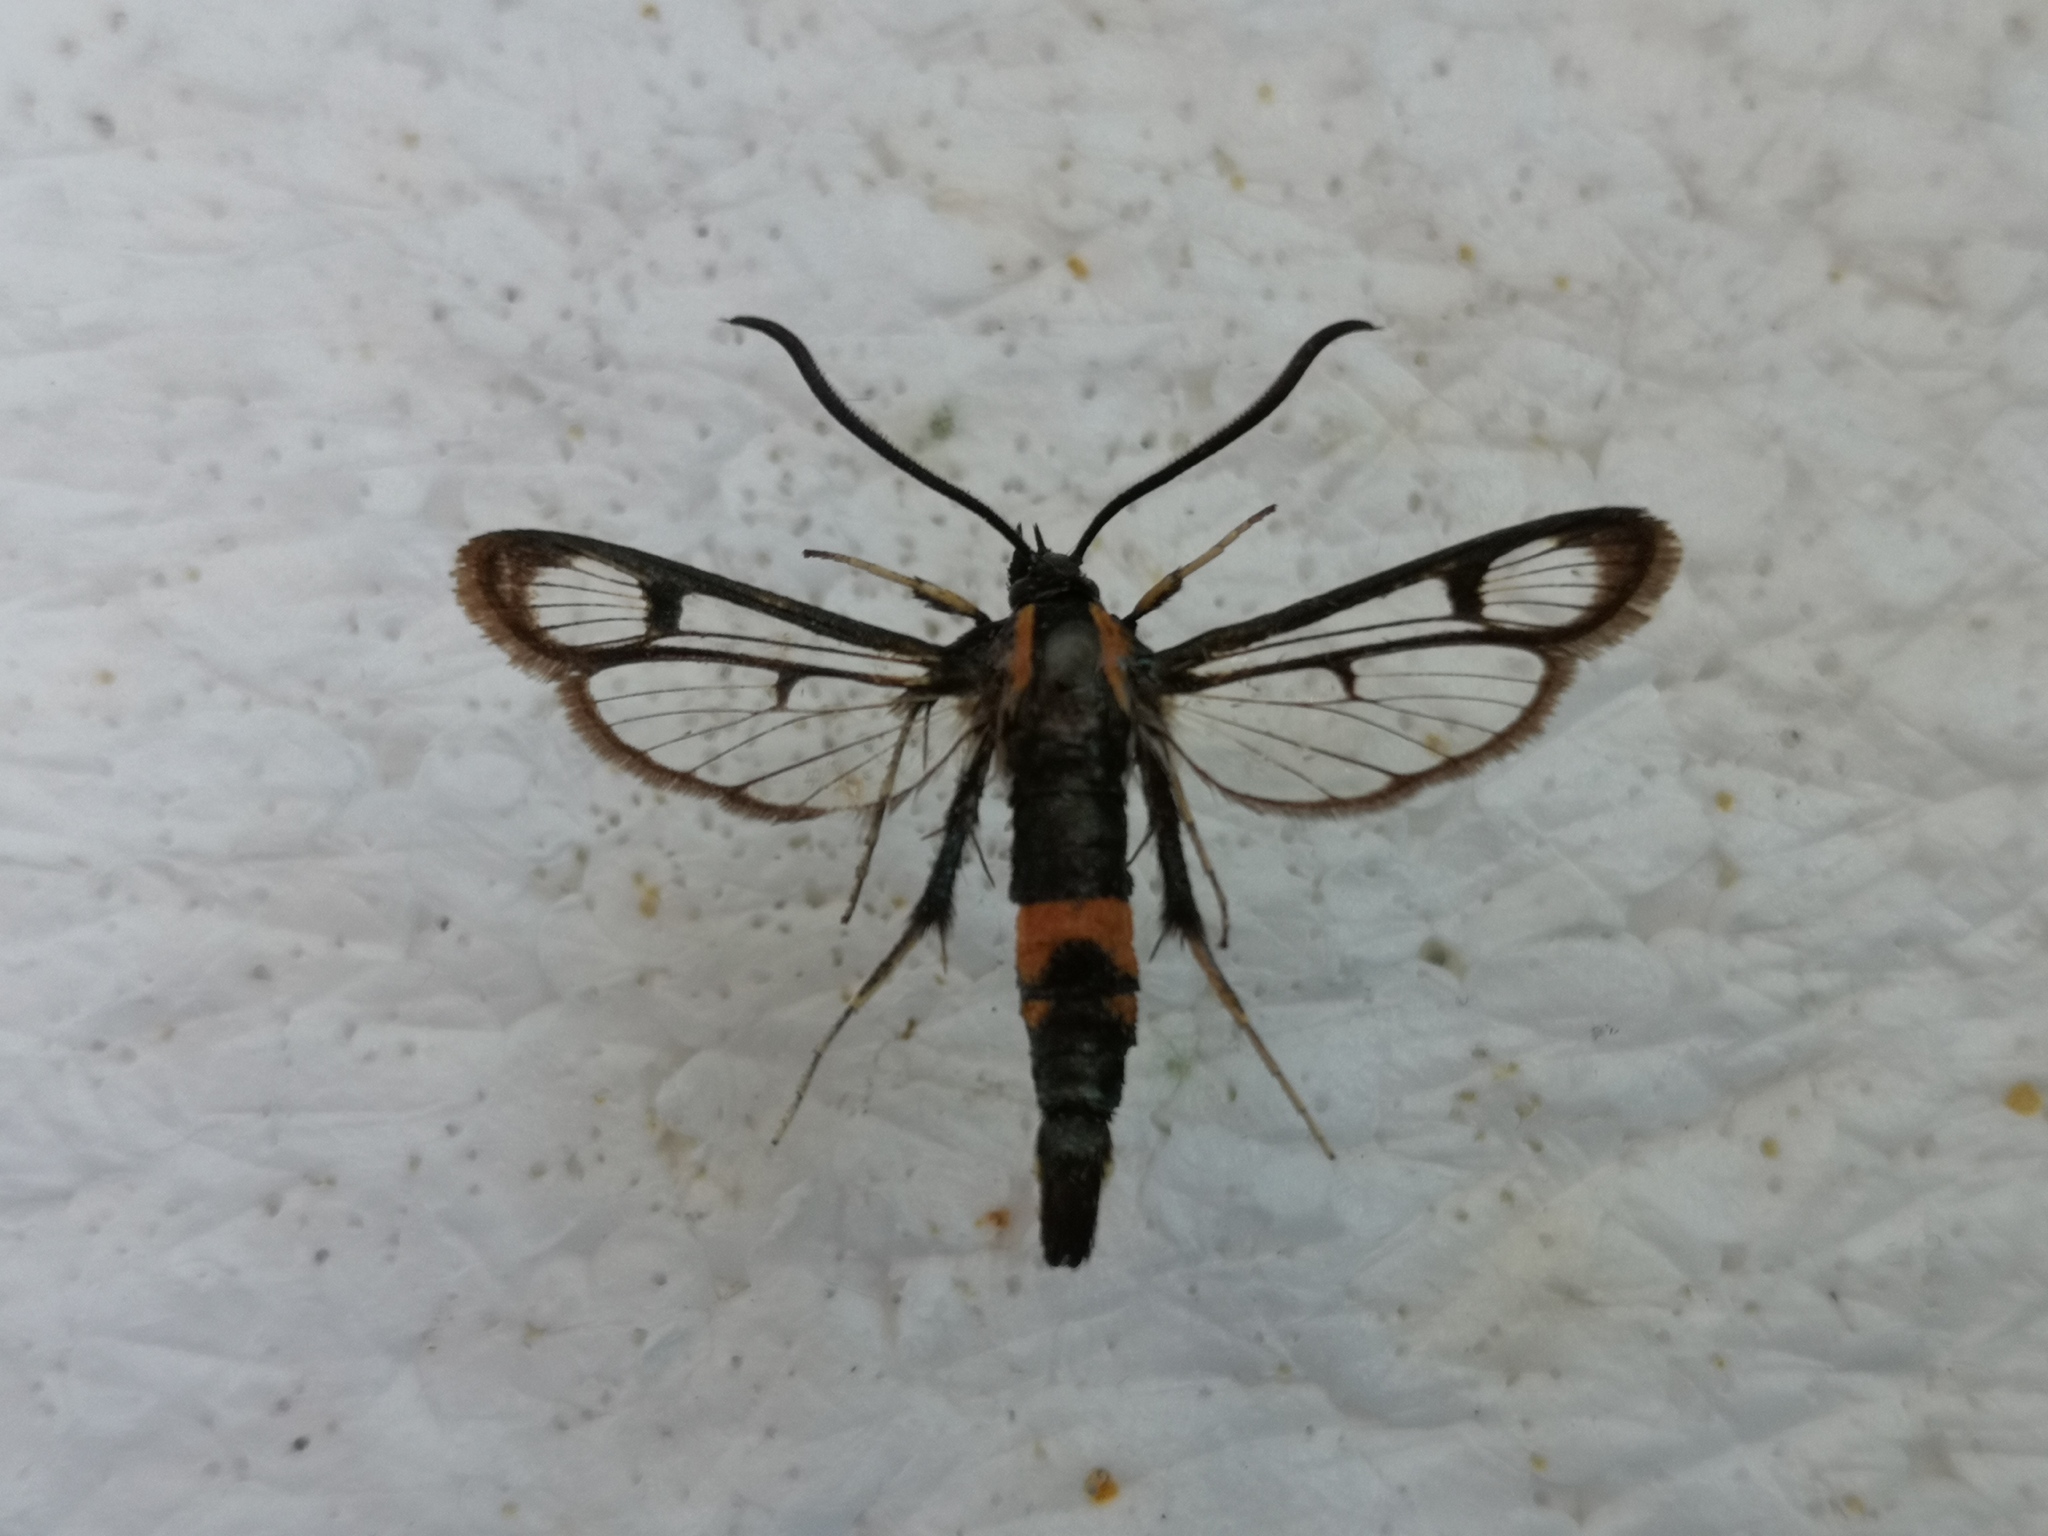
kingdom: Animalia
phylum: Arthropoda
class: Insecta
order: Lepidoptera
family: Sesiidae
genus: Synanthedon
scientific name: Synanthedon stomoxiformis
